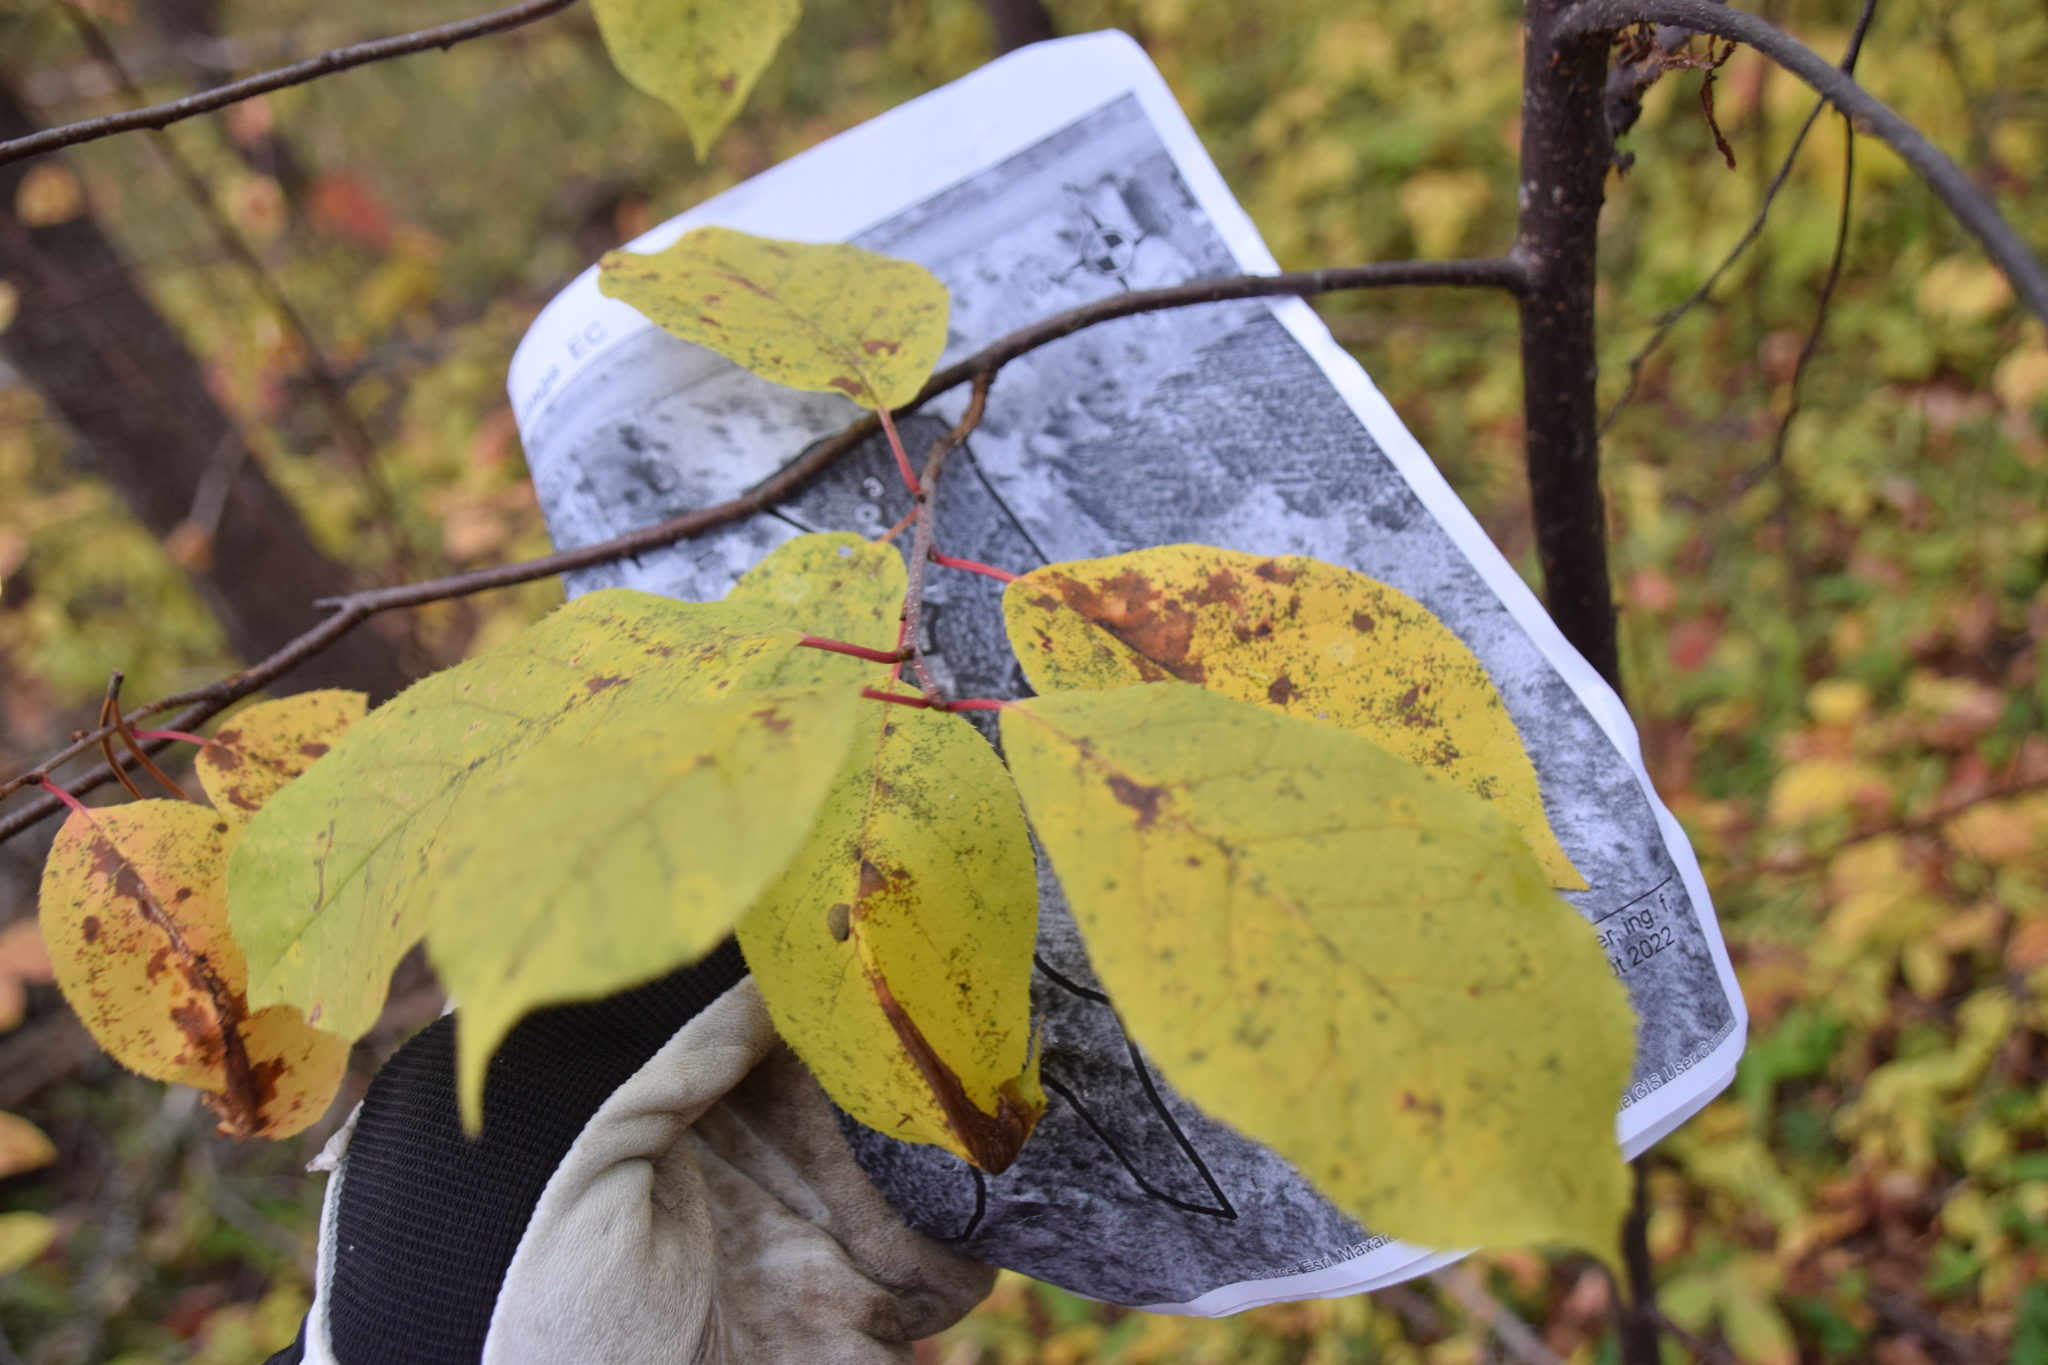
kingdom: Plantae
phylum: Tracheophyta
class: Magnoliopsida
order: Rosales
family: Rosaceae
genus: Prunus
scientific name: Prunus virginiana
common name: Chokecherry
